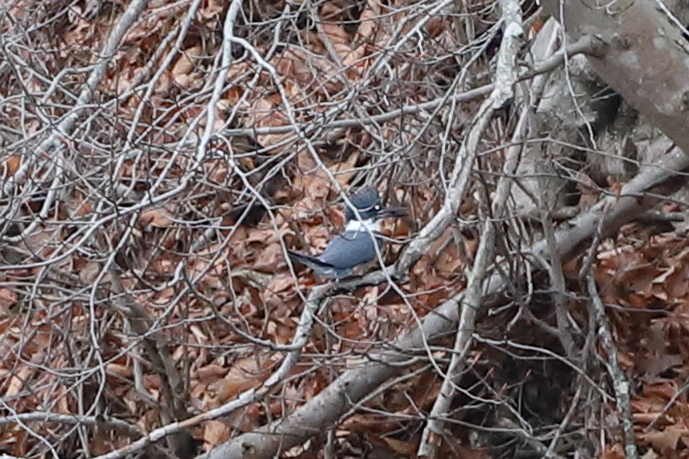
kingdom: Animalia
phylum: Chordata
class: Aves
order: Coraciiformes
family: Alcedinidae
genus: Megaceryle
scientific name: Megaceryle alcyon
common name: Belted kingfisher
